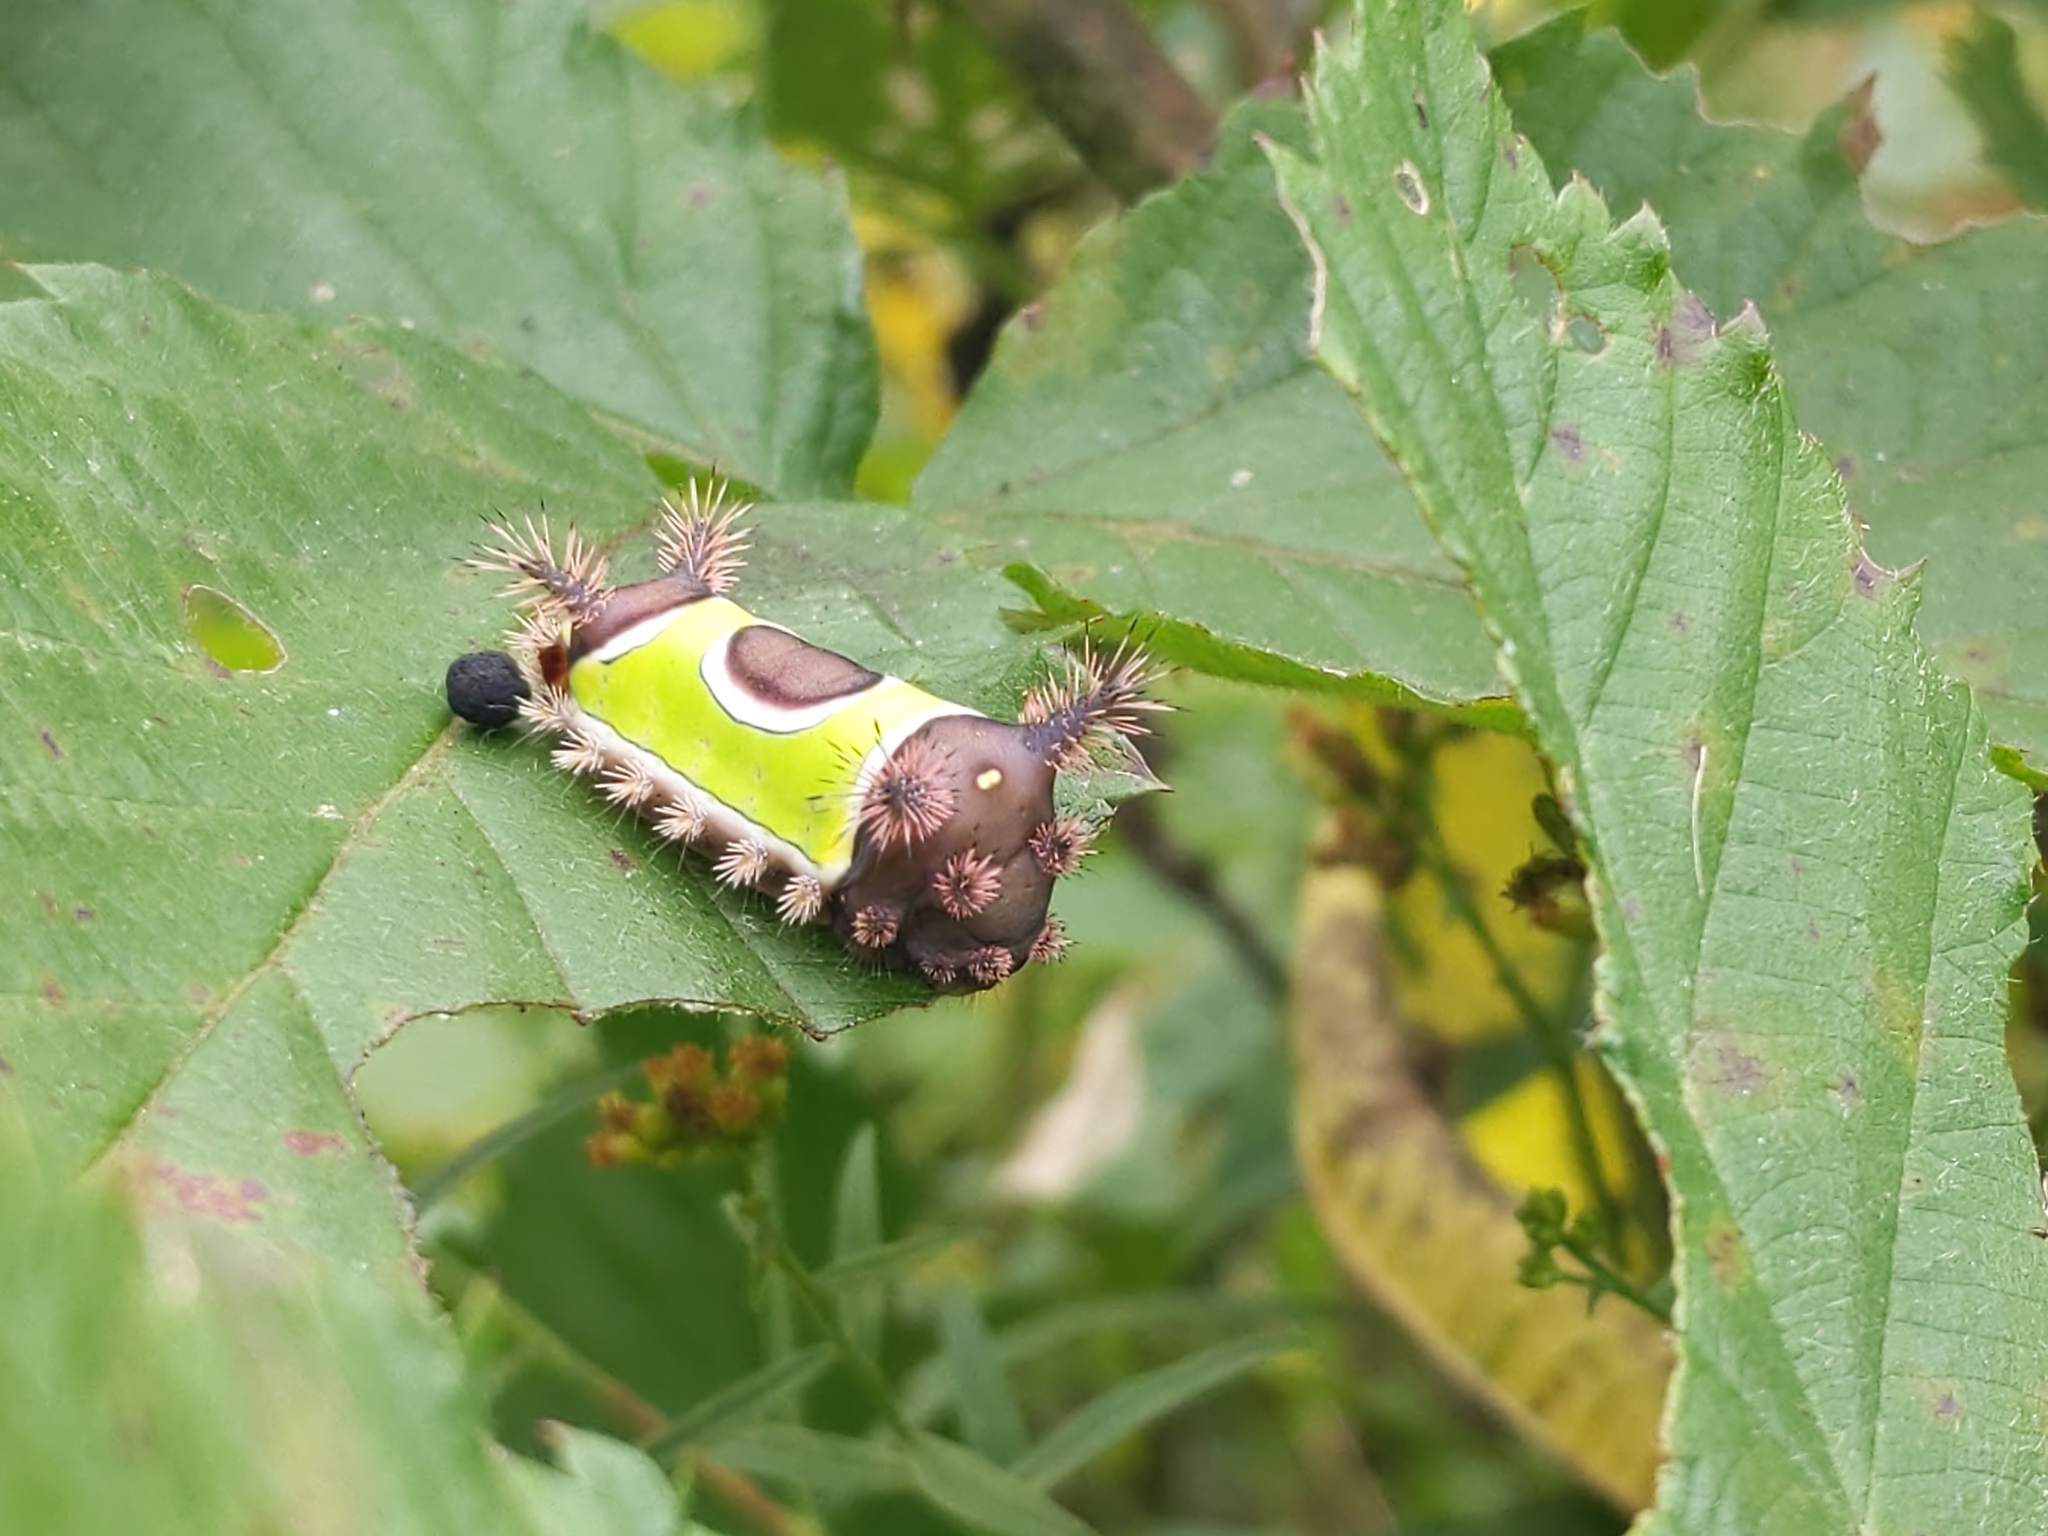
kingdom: Animalia
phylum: Arthropoda
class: Insecta
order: Lepidoptera
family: Limacodidae
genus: Acharia
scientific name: Acharia stimulea
